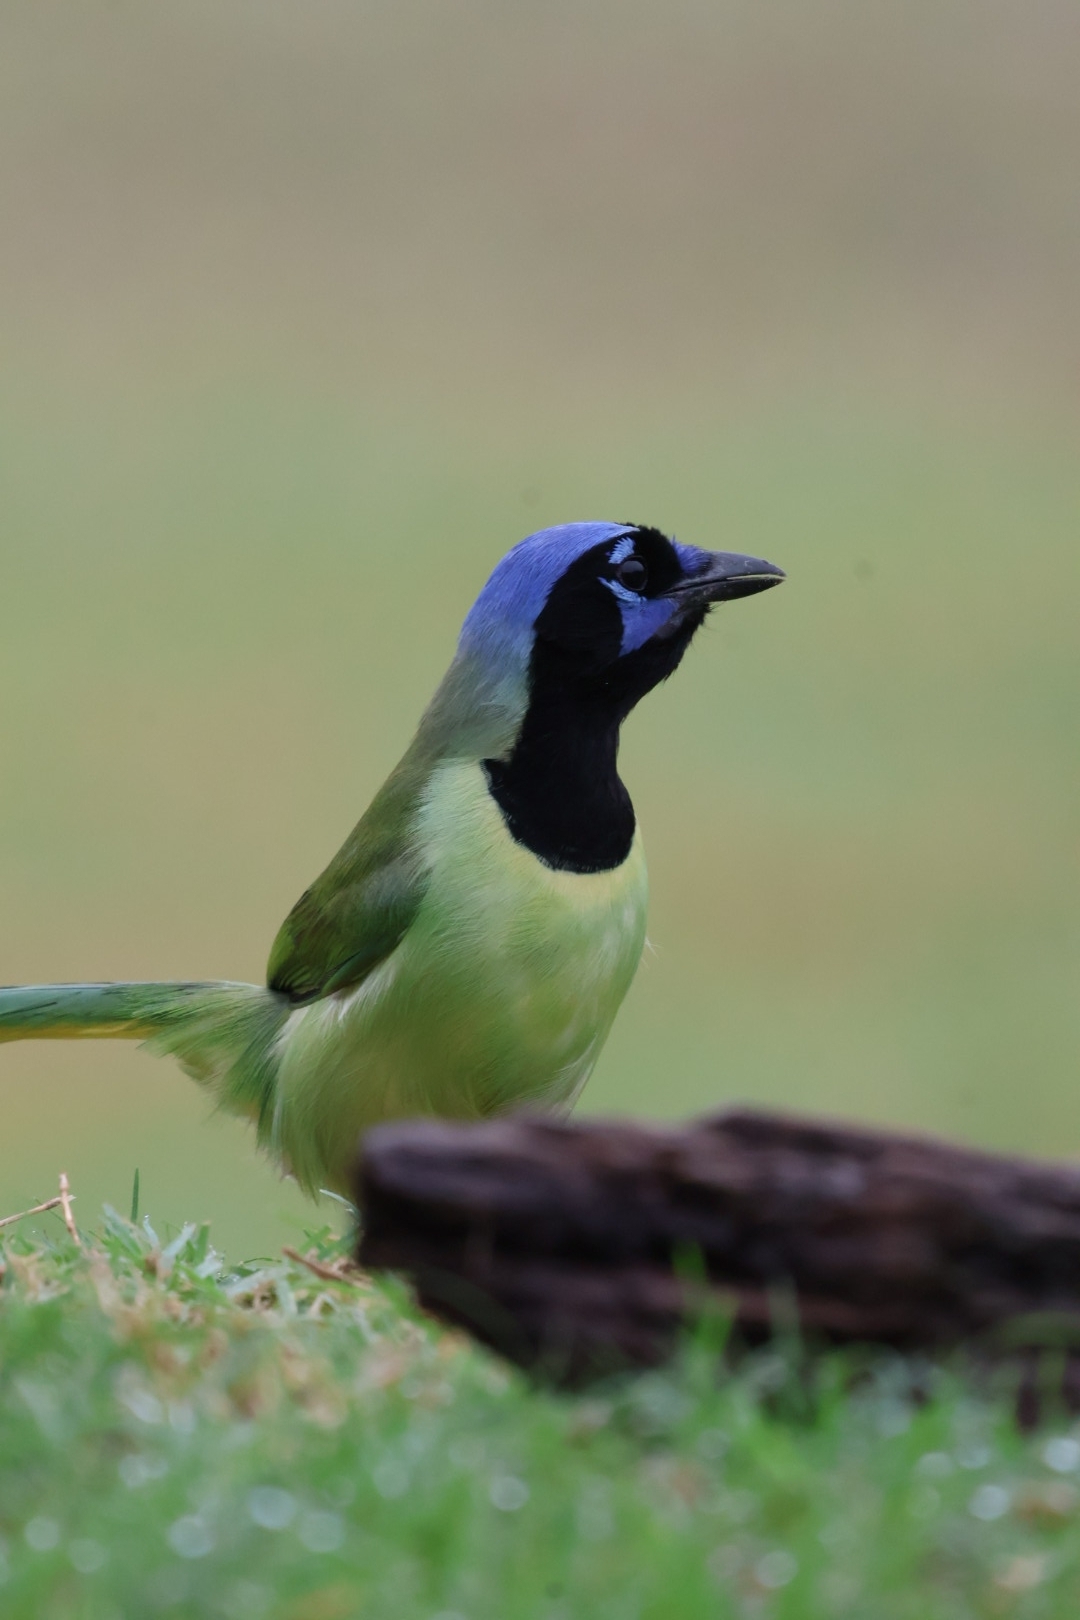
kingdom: Animalia
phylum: Chordata
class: Aves
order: Passeriformes
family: Corvidae
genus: Cyanocorax
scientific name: Cyanocorax yncas
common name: Green jay
